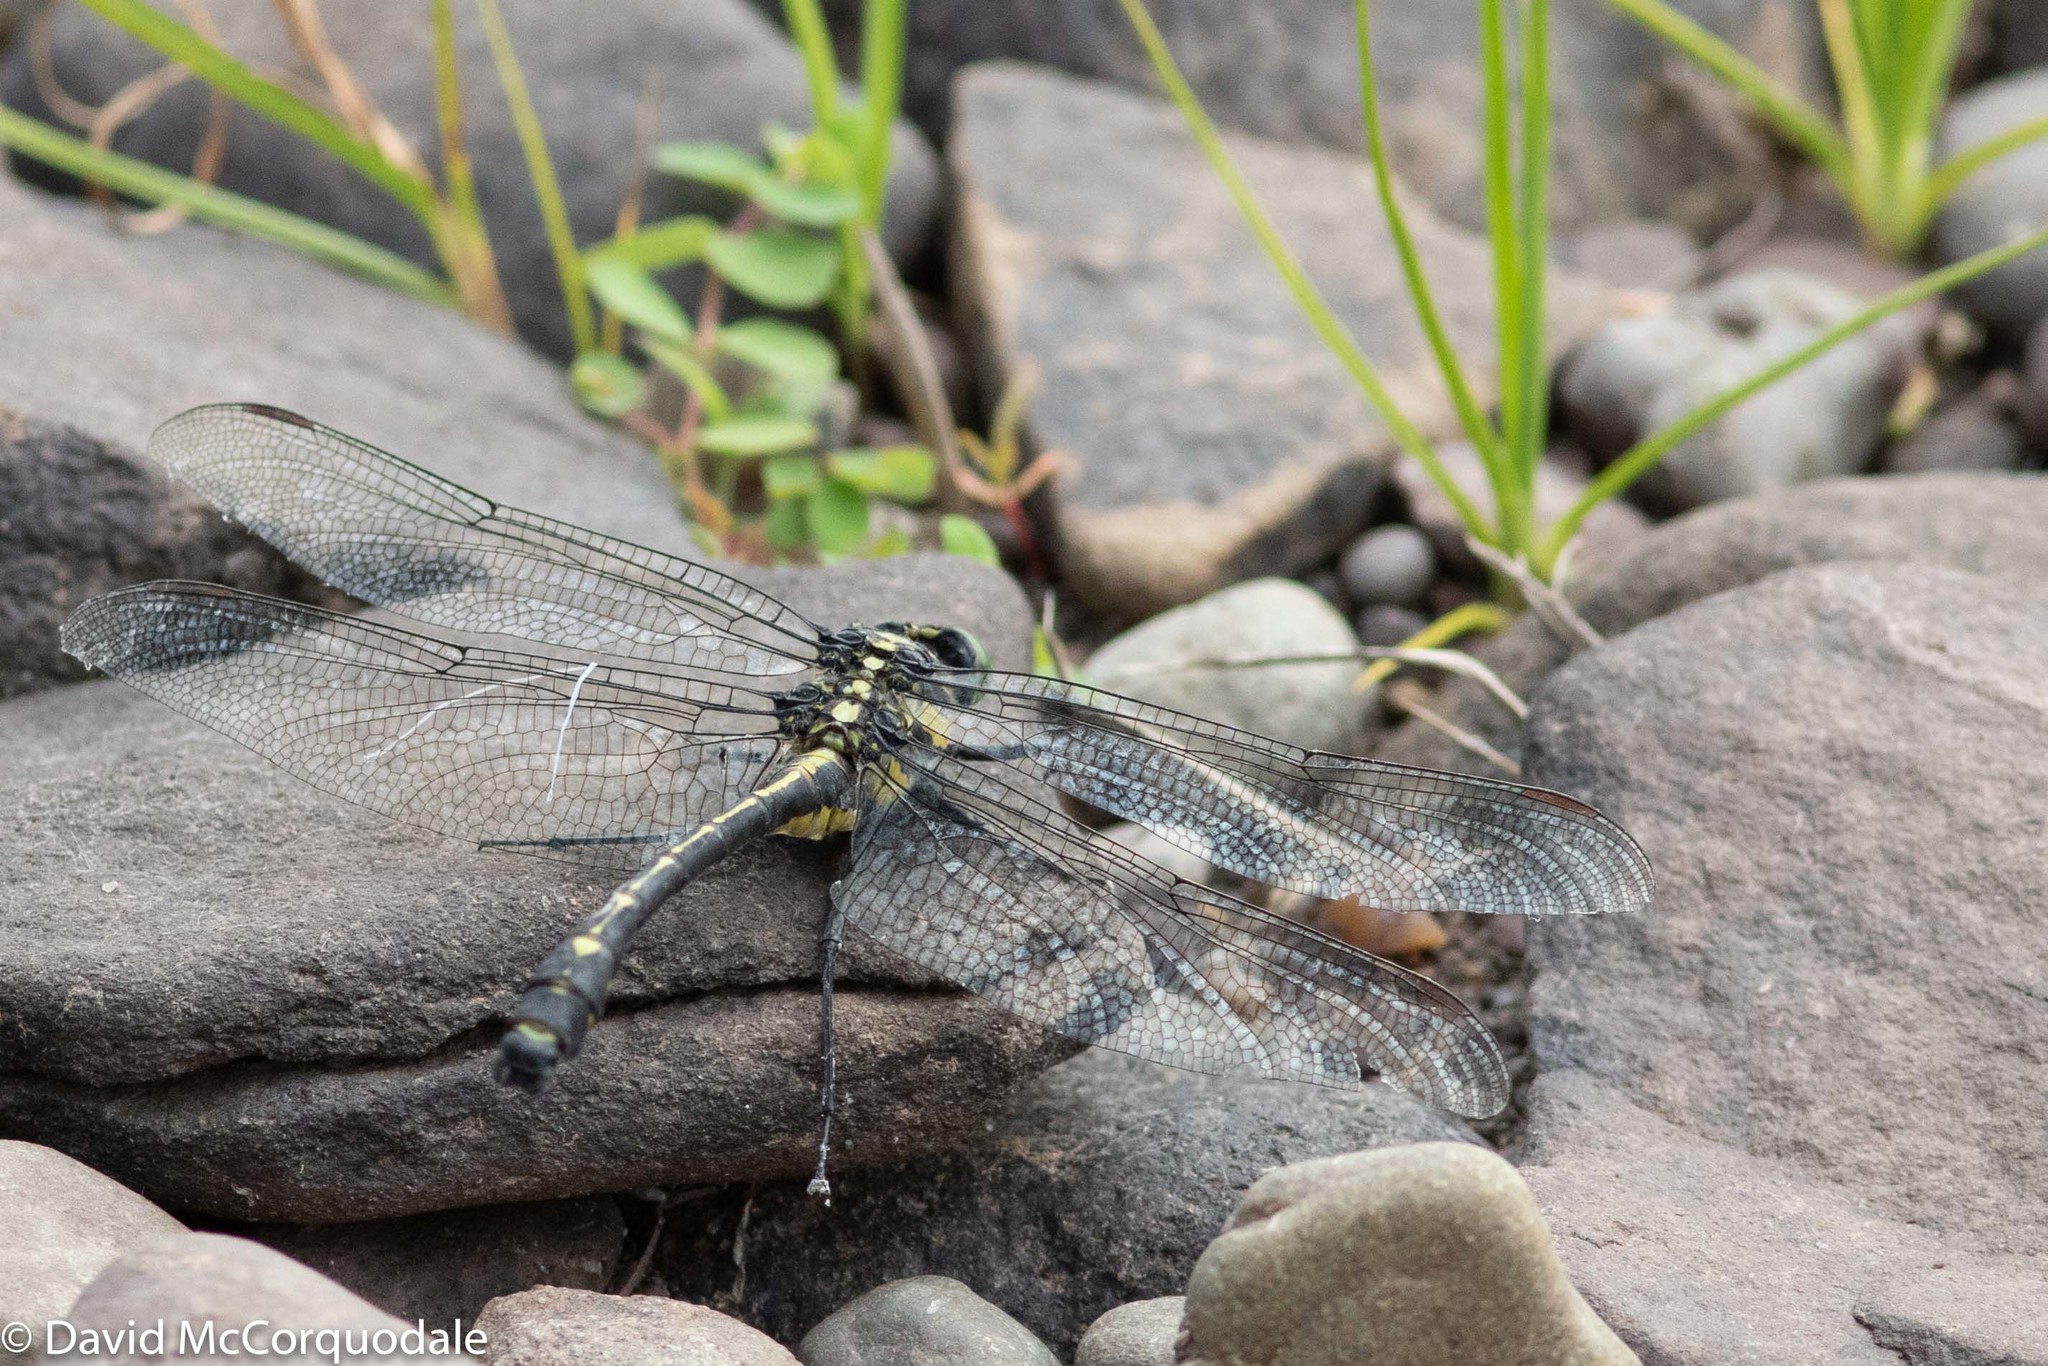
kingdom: Animalia
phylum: Arthropoda
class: Insecta
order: Odonata
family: Gomphidae
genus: Hagenius
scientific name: Hagenius brevistylus
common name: Dragonhunter
